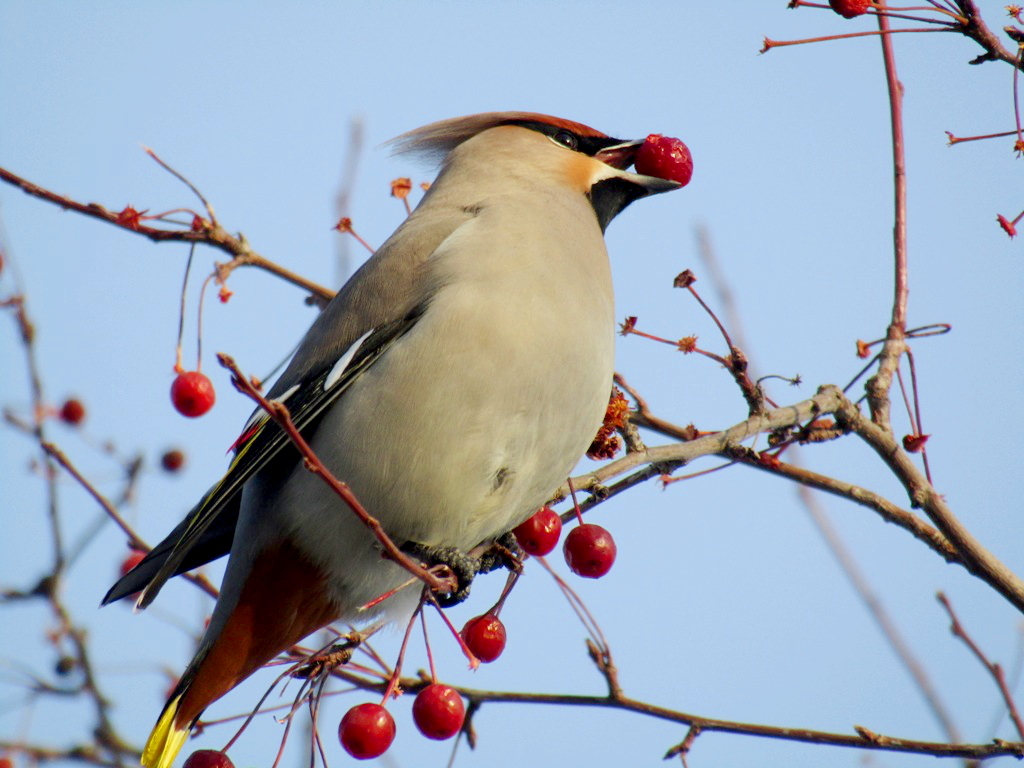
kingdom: Animalia
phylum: Chordata
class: Aves
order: Passeriformes
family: Bombycillidae
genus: Bombycilla
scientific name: Bombycilla garrulus
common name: Bohemian waxwing
